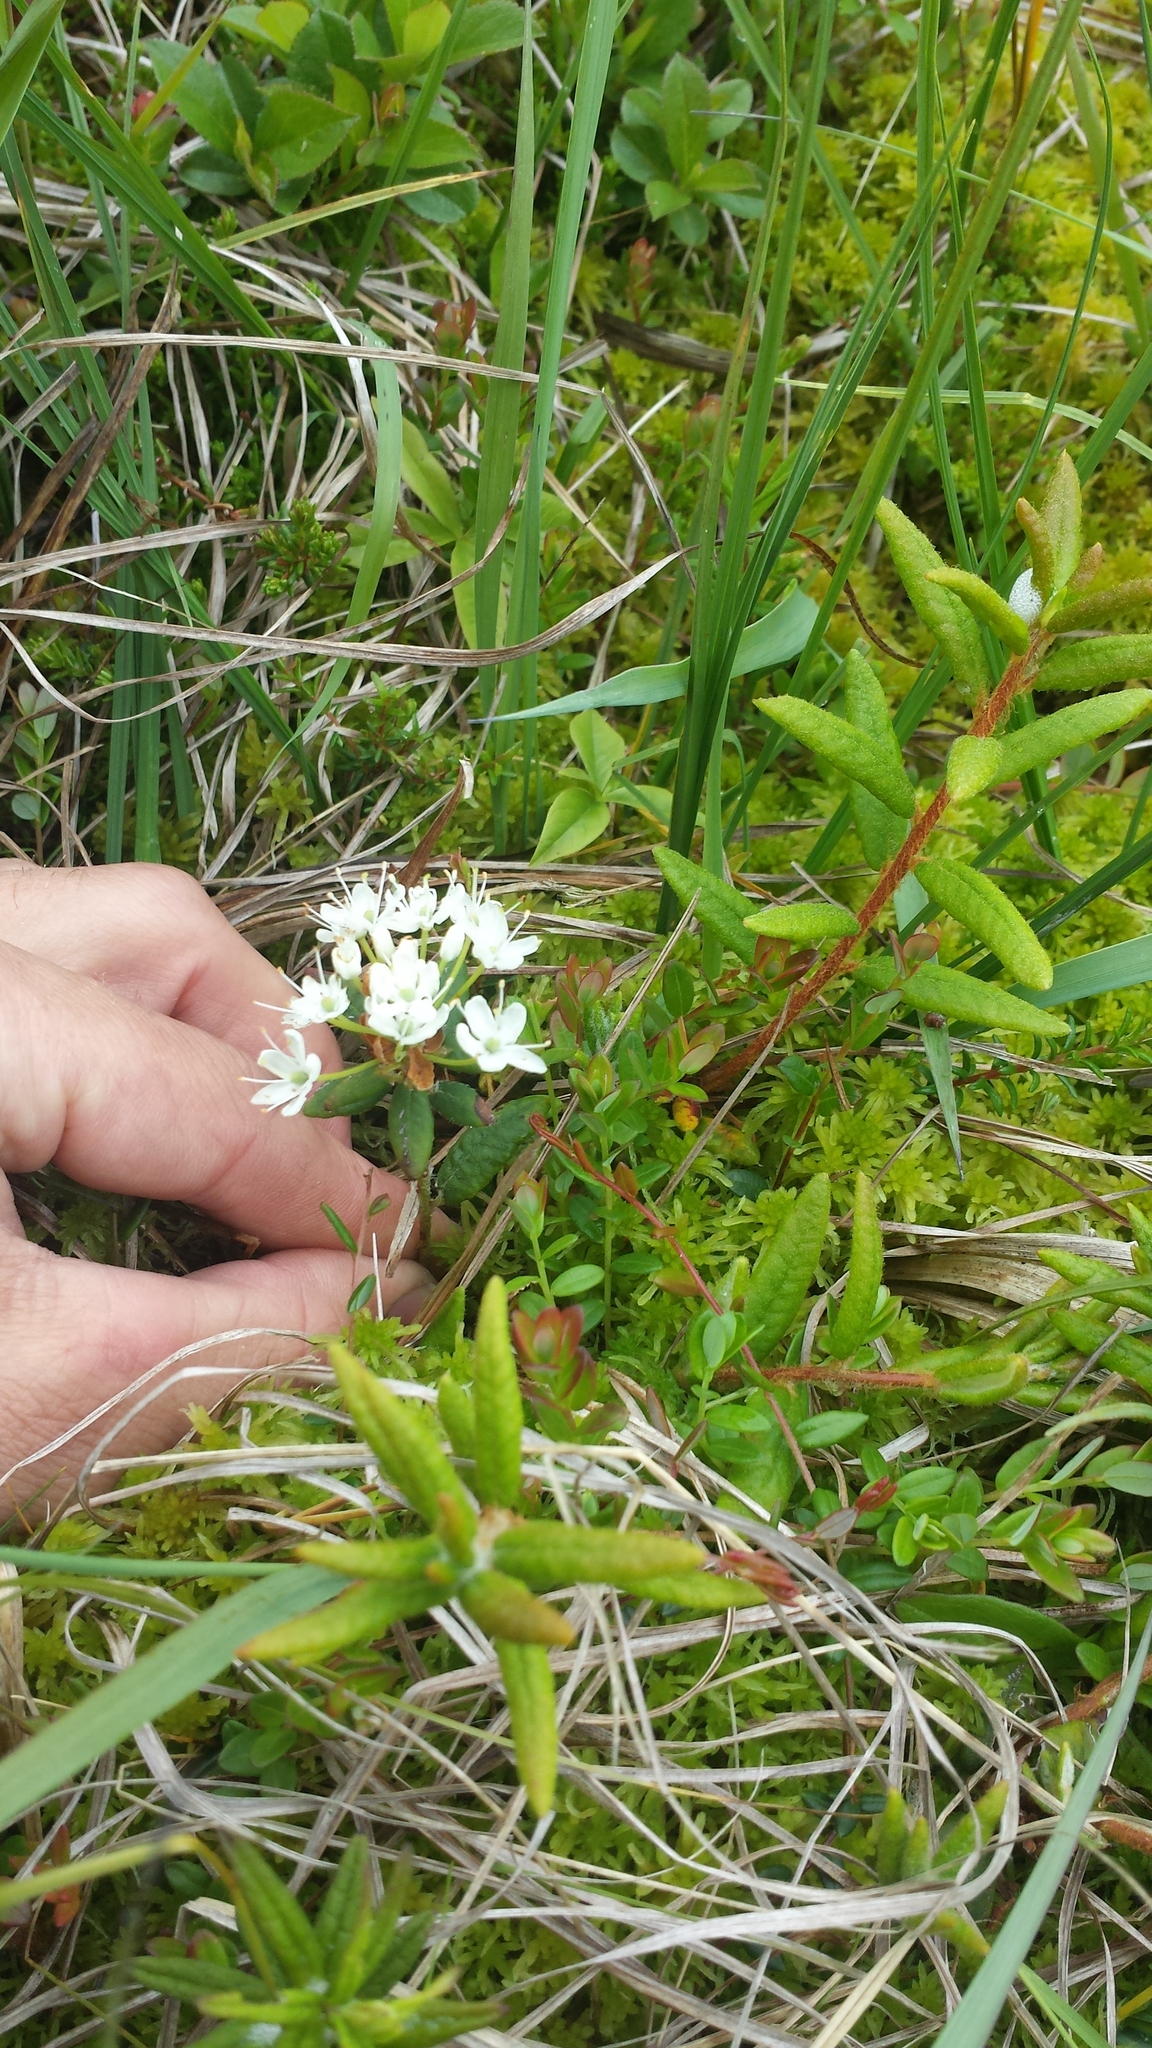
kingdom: Plantae
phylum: Tracheophyta
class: Magnoliopsida
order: Ericales
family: Ericaceae
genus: Rhododendron
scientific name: Rhododendron groenlandicum
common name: Bog labrador tea
